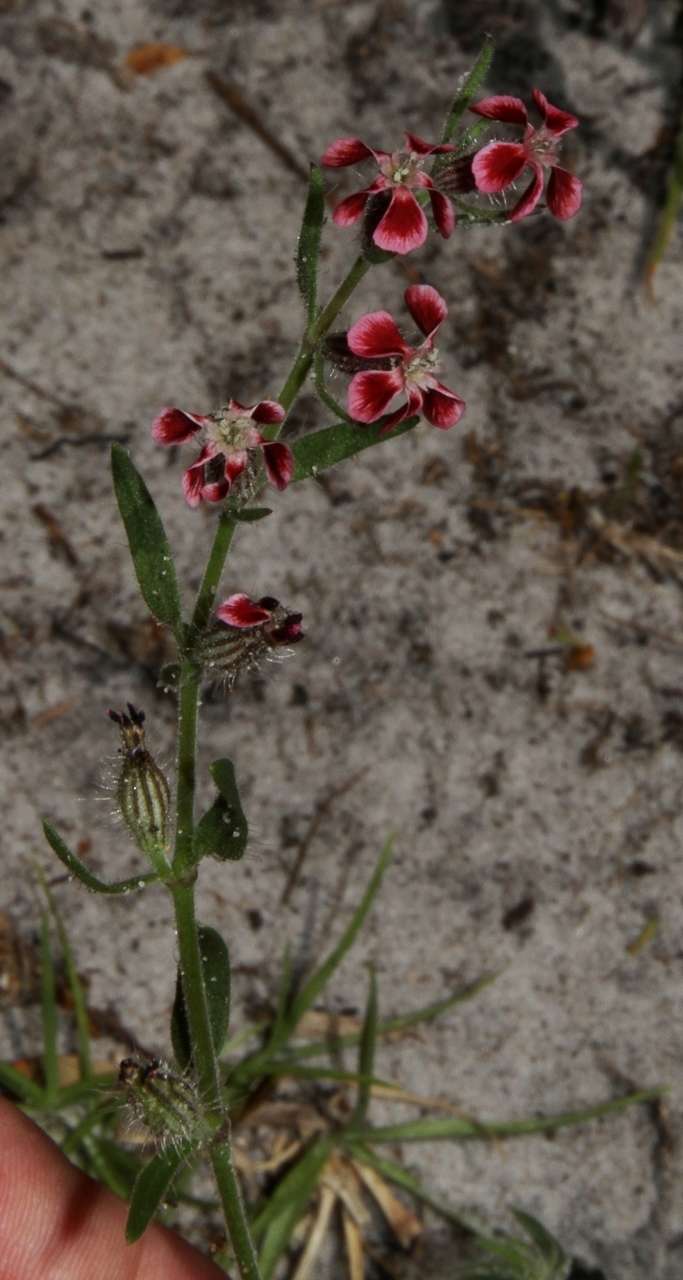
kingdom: Plantae
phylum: Tracheophyta
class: Magnoliopsida
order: Caryophyllales
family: Caryophyllaceae
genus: Silene
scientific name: Silene gallica
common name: Small-flowered catchfly
